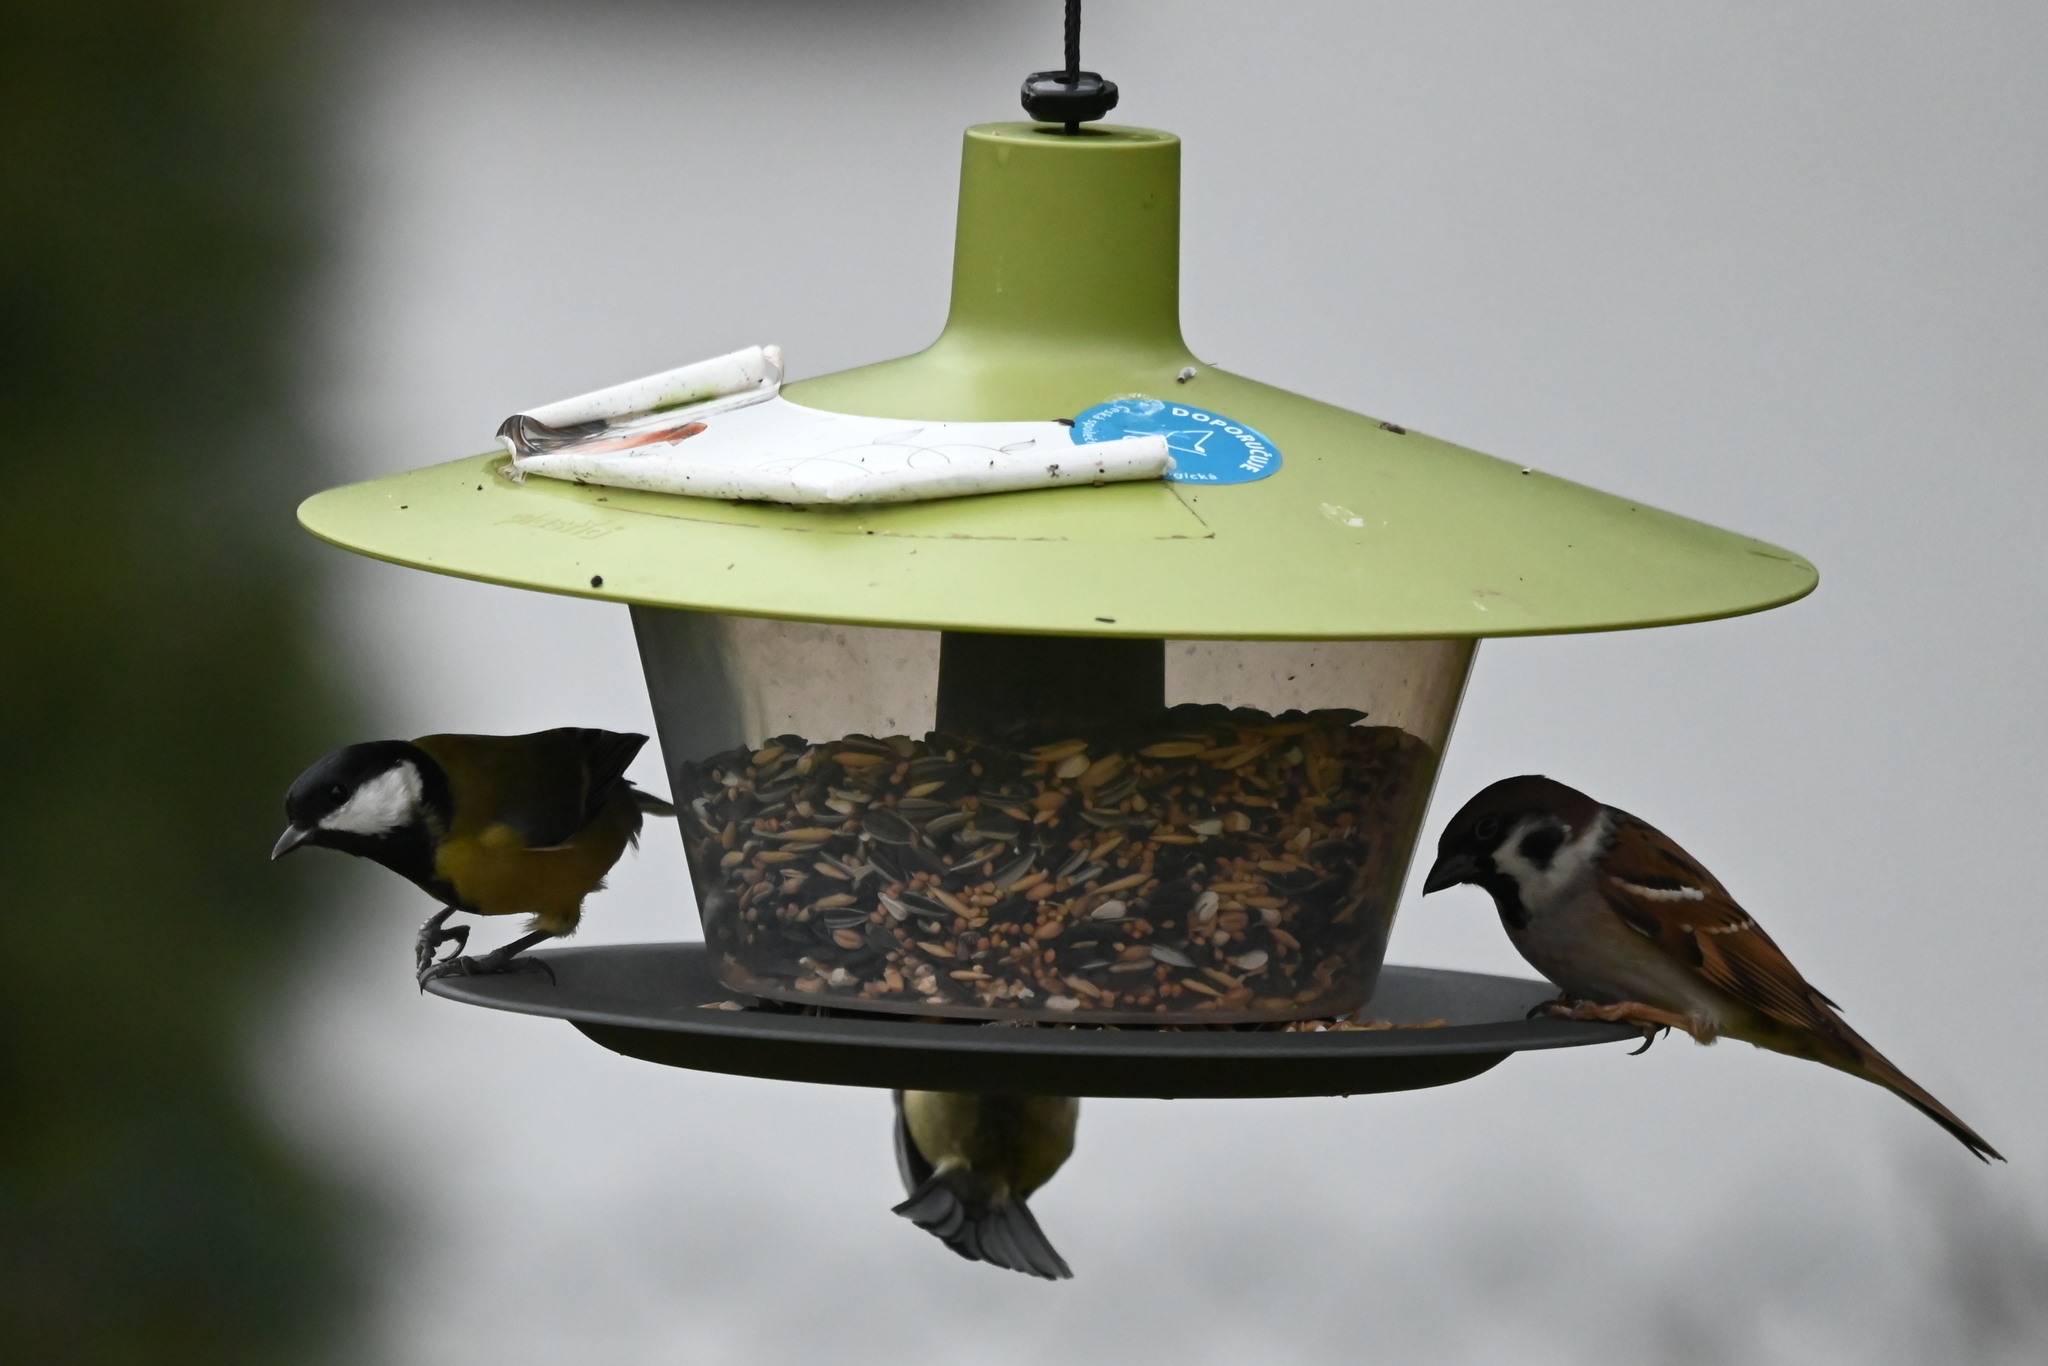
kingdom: Animalia
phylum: Chordata
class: Aves
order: Passeriformes
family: Passeridae
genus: Passer
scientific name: Passer montanus
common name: Eurasian tree sparrow
